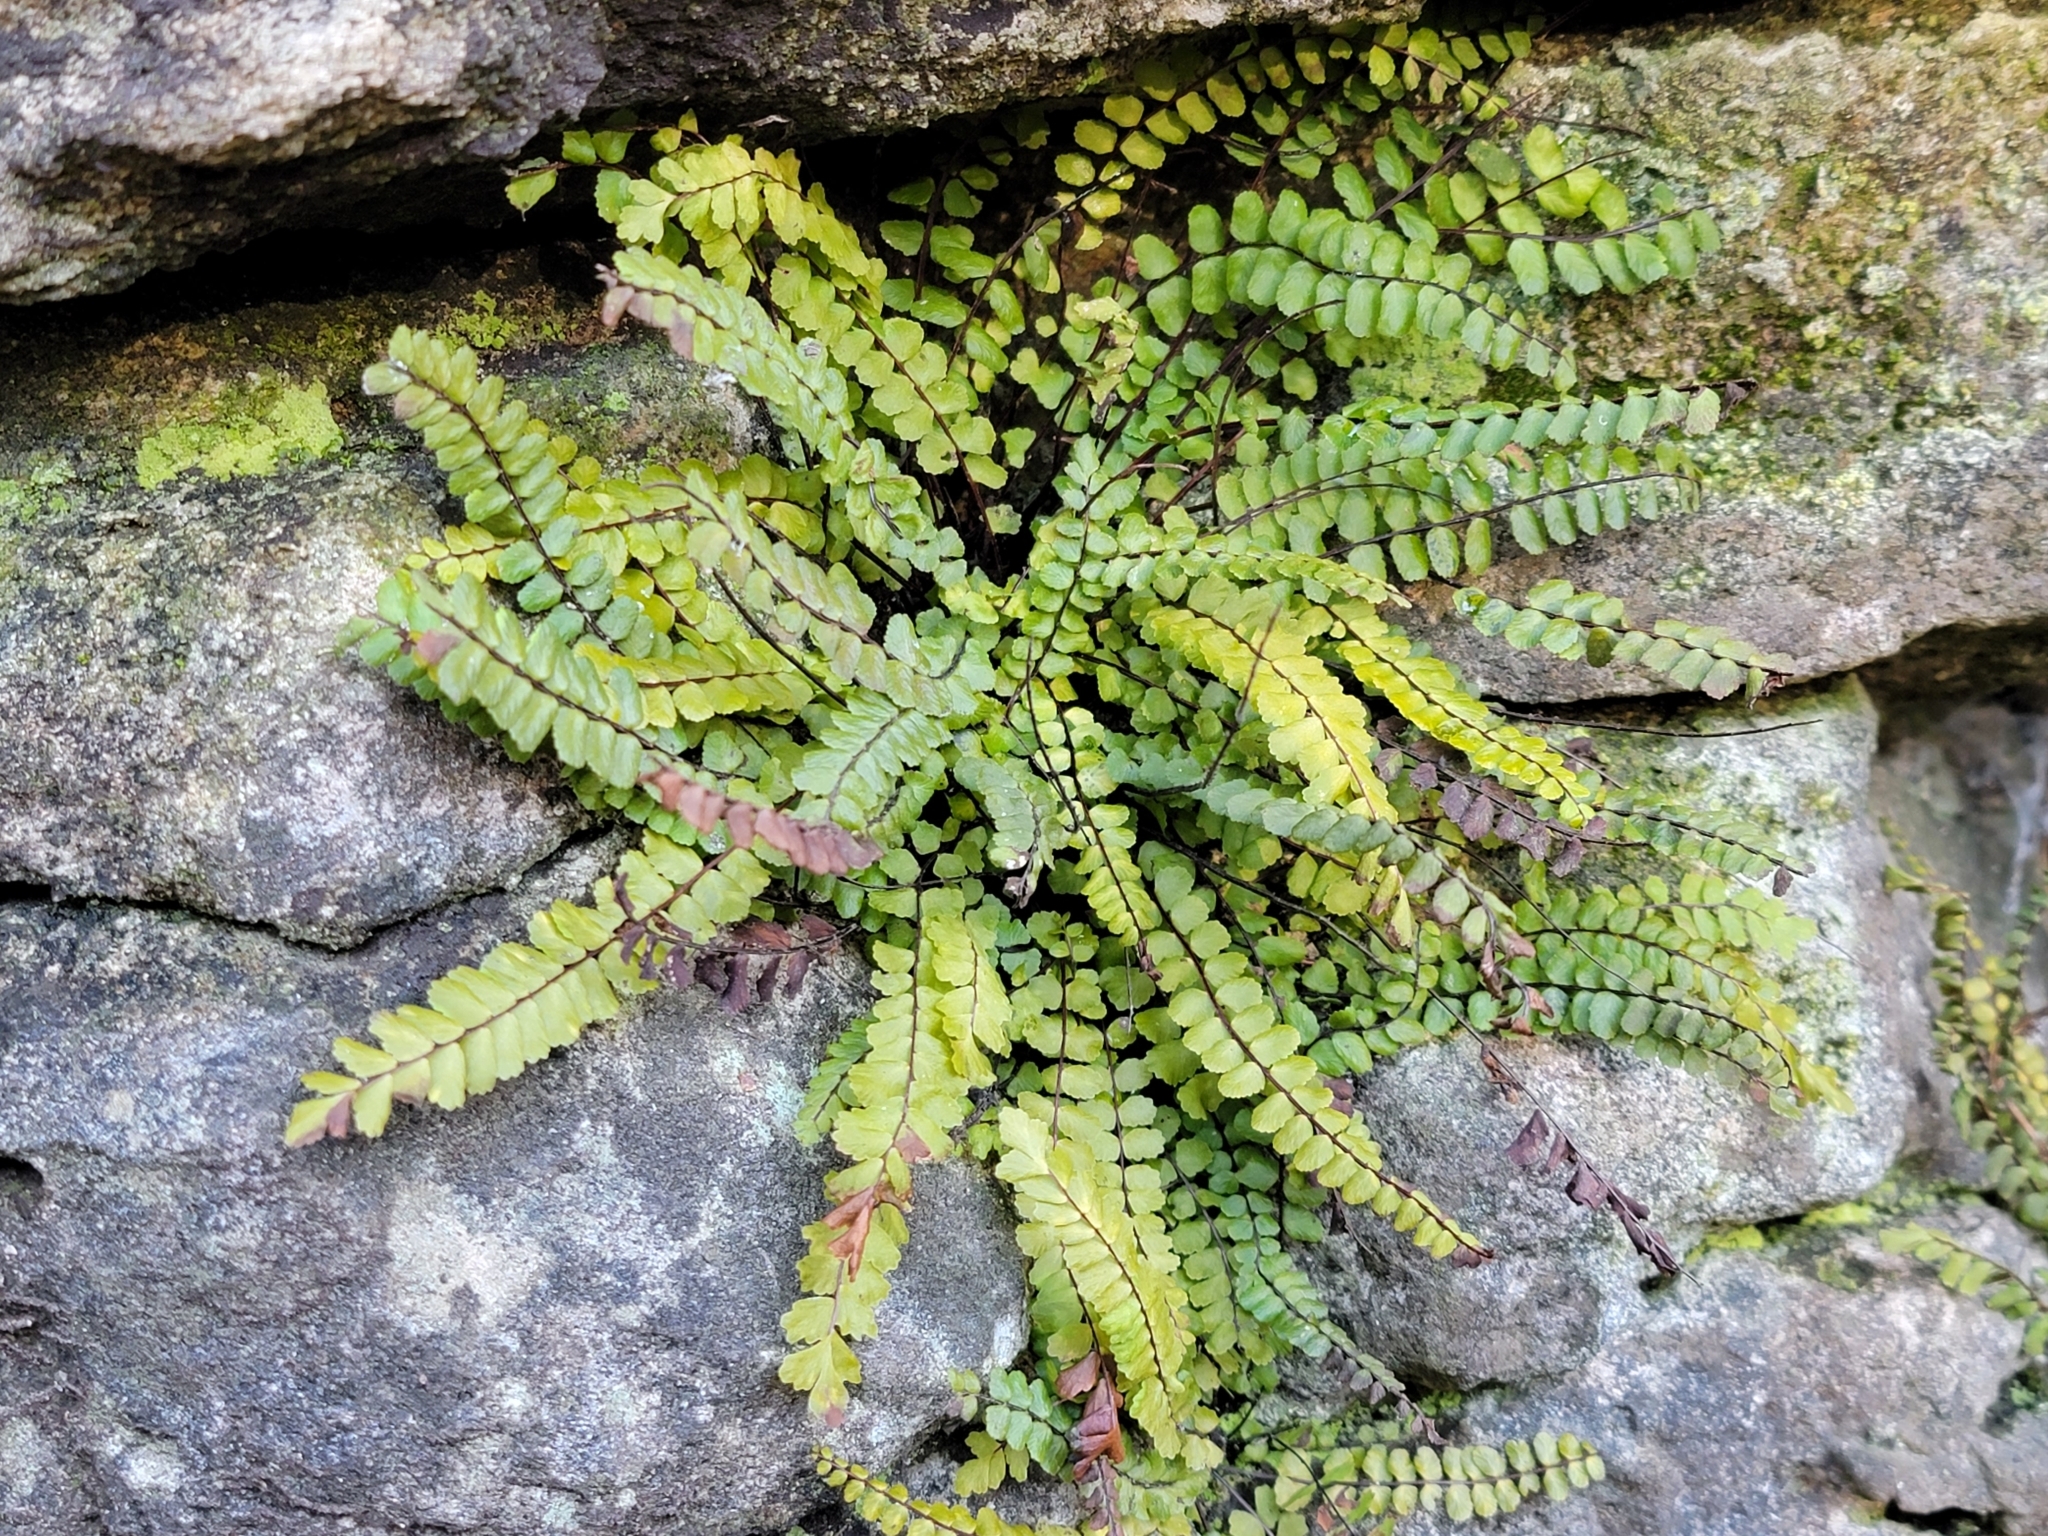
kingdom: Plantae
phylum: Tracheophyta
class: Polypodiopsida
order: Polypodiales
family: Aspleniaceae
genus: Asplenium
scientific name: Asplenium quadrivalens
